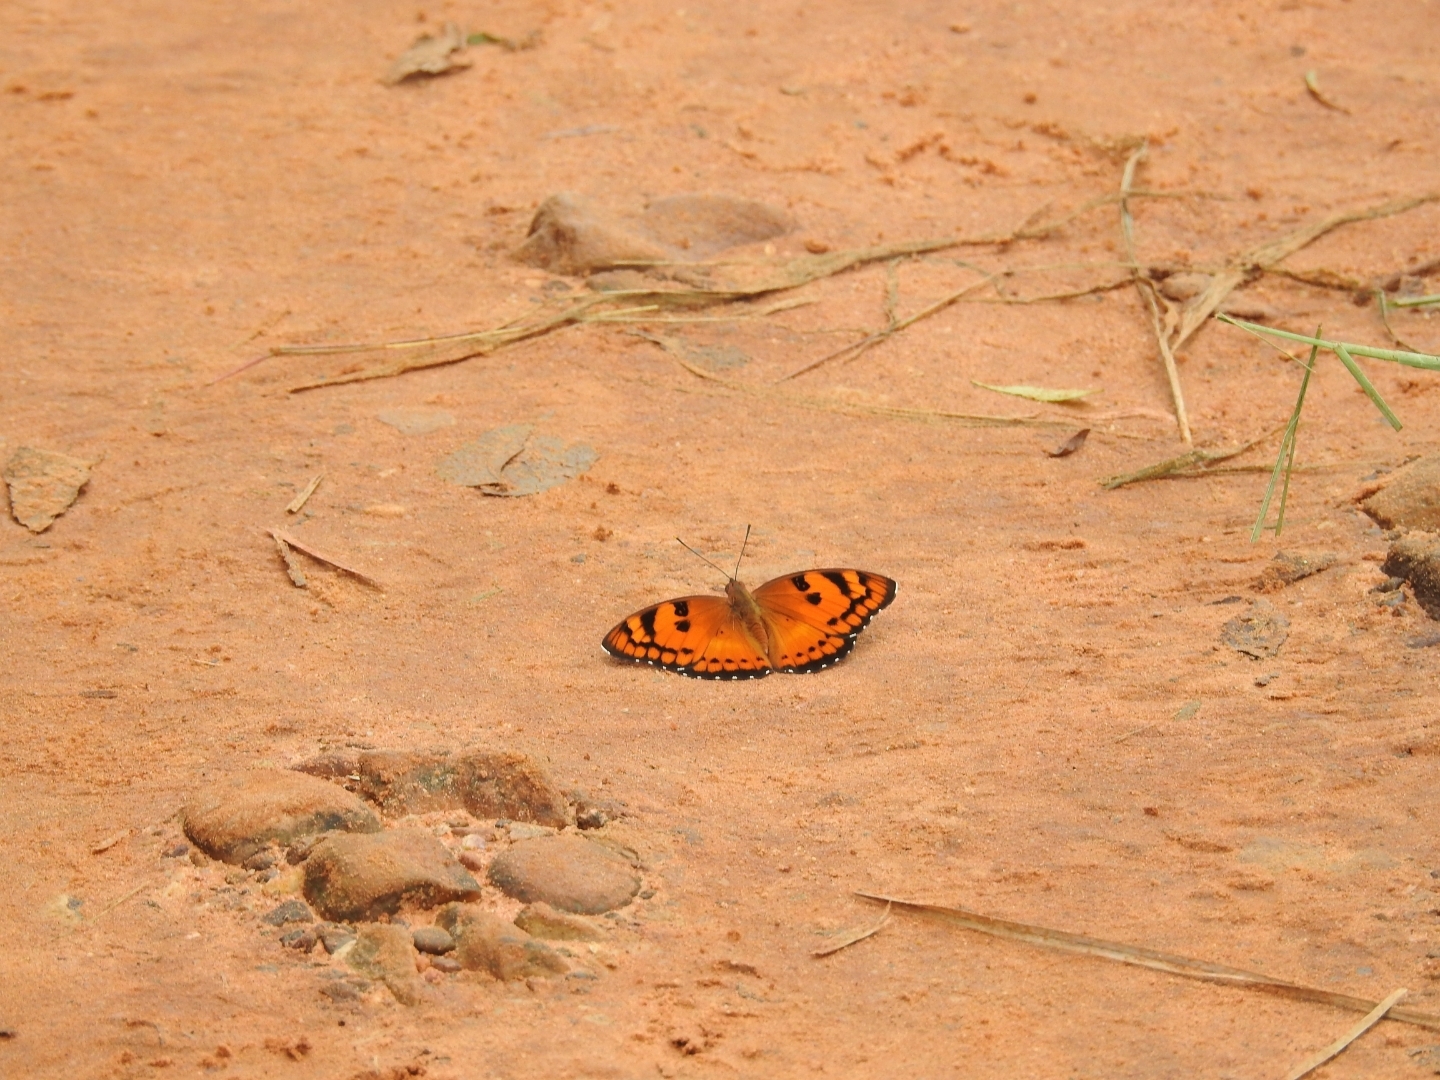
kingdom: Animalia
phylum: Arthropoda
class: Insecta
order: Lepidoptera
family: Nymphalidae
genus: Euthalia
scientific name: Euthalia nais
